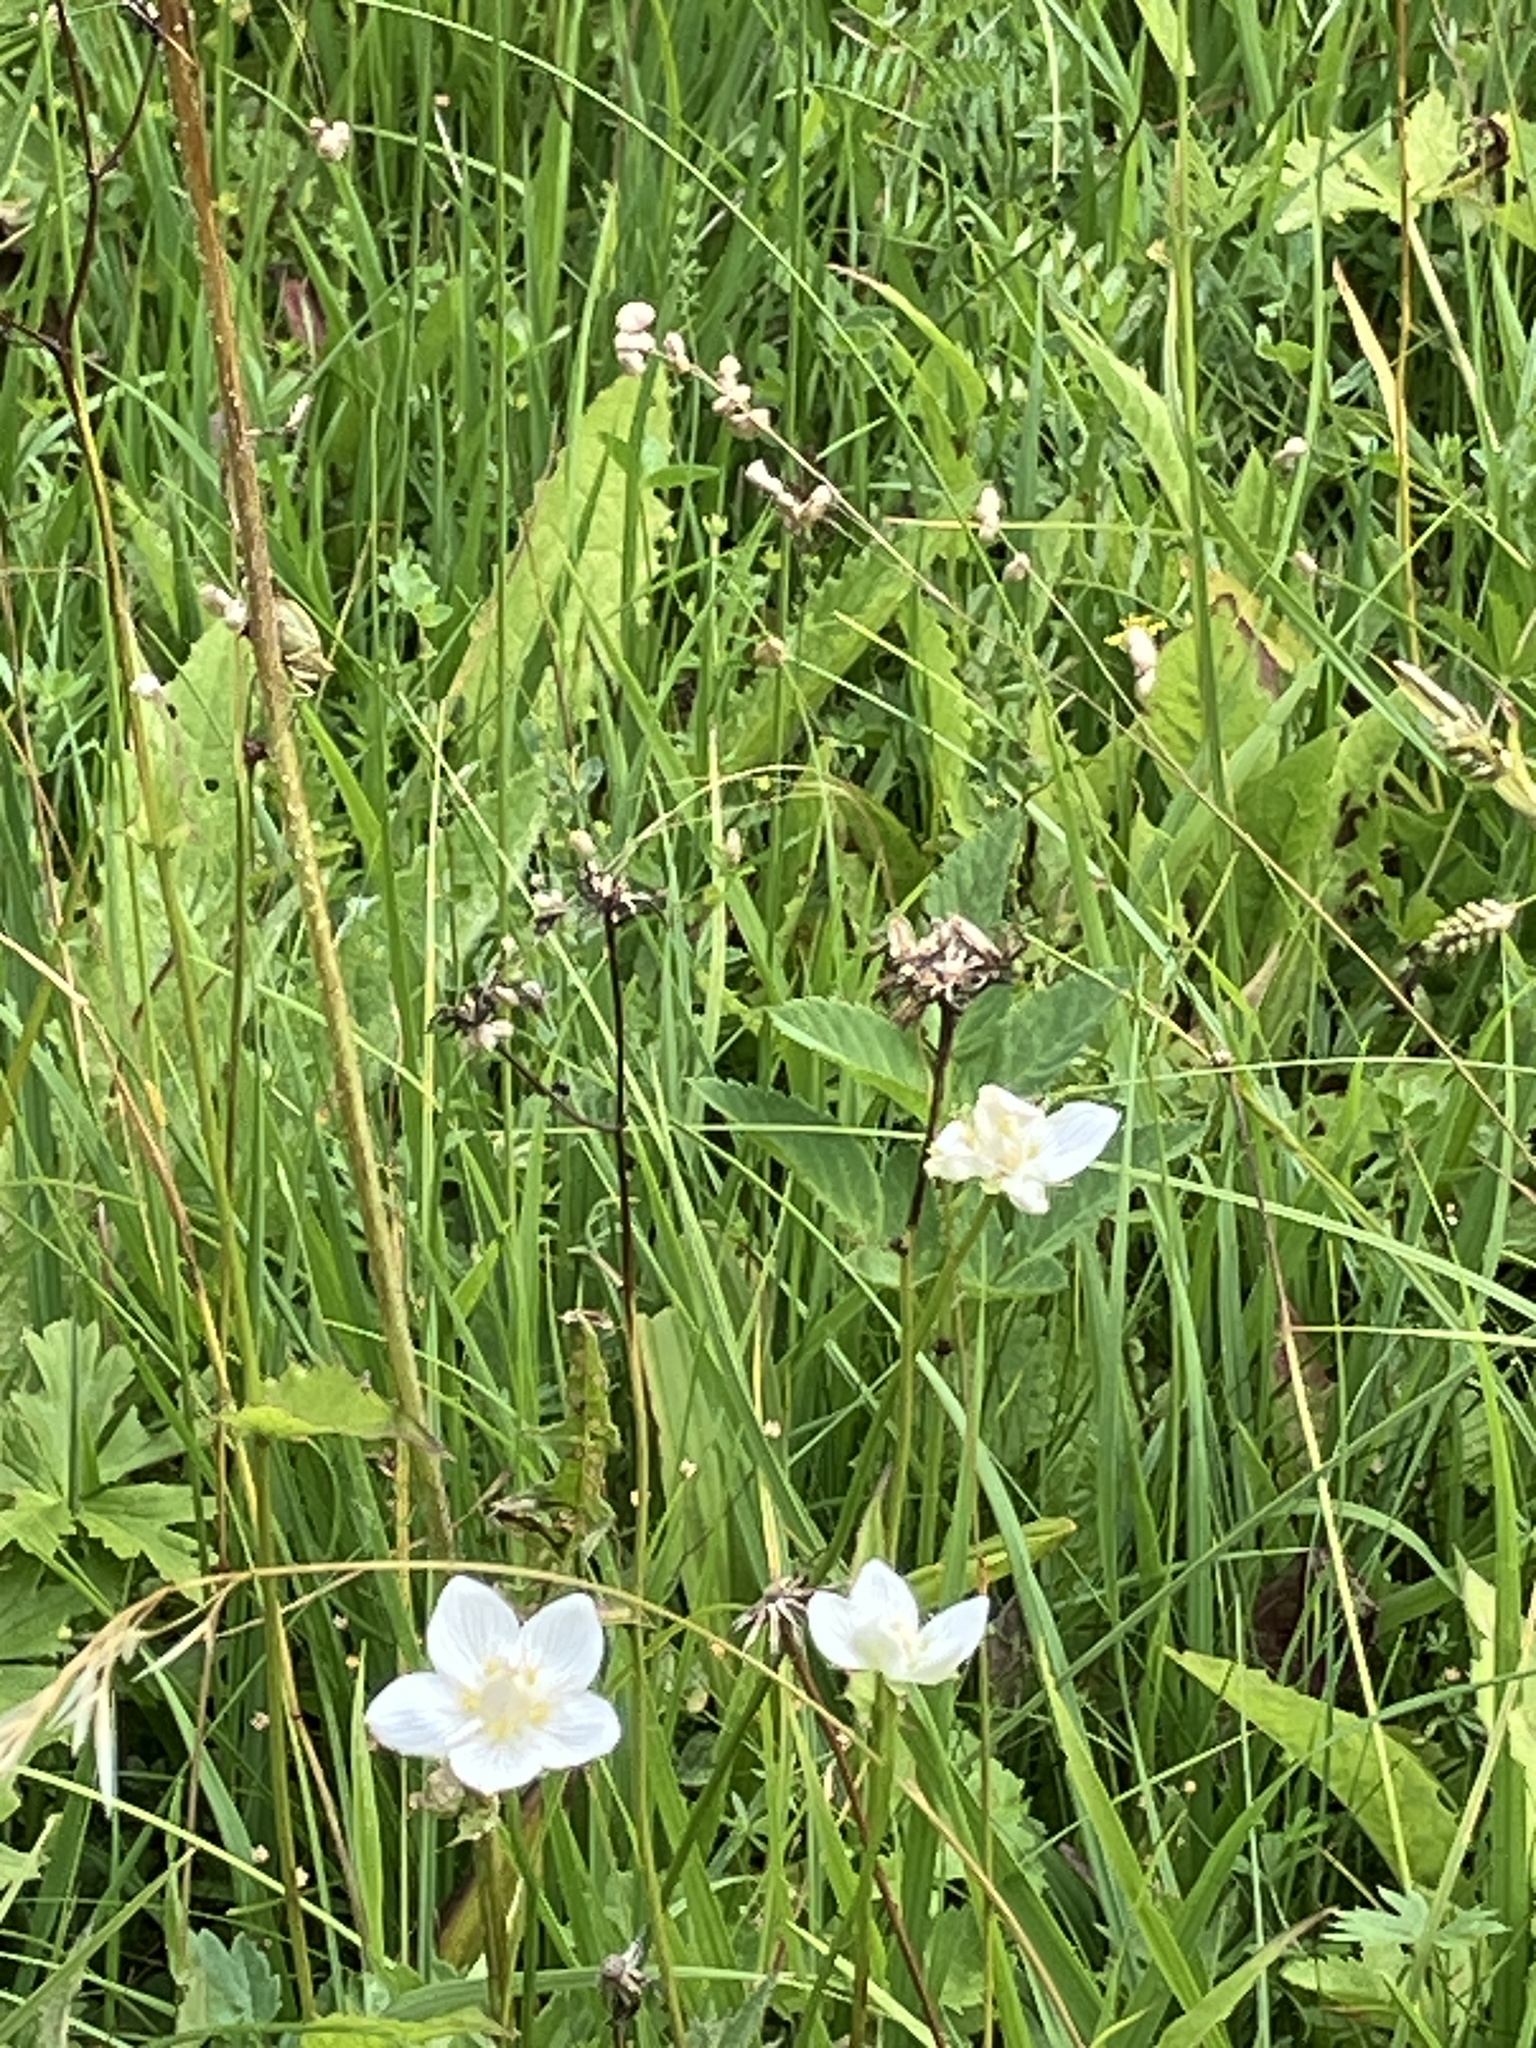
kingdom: Plantae
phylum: Tracheophyta
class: Magnoliopsida
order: Celastrales
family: Parnassiaceae
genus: Parnassia
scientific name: Parnassia palustris
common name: Grass-of-parnassus
